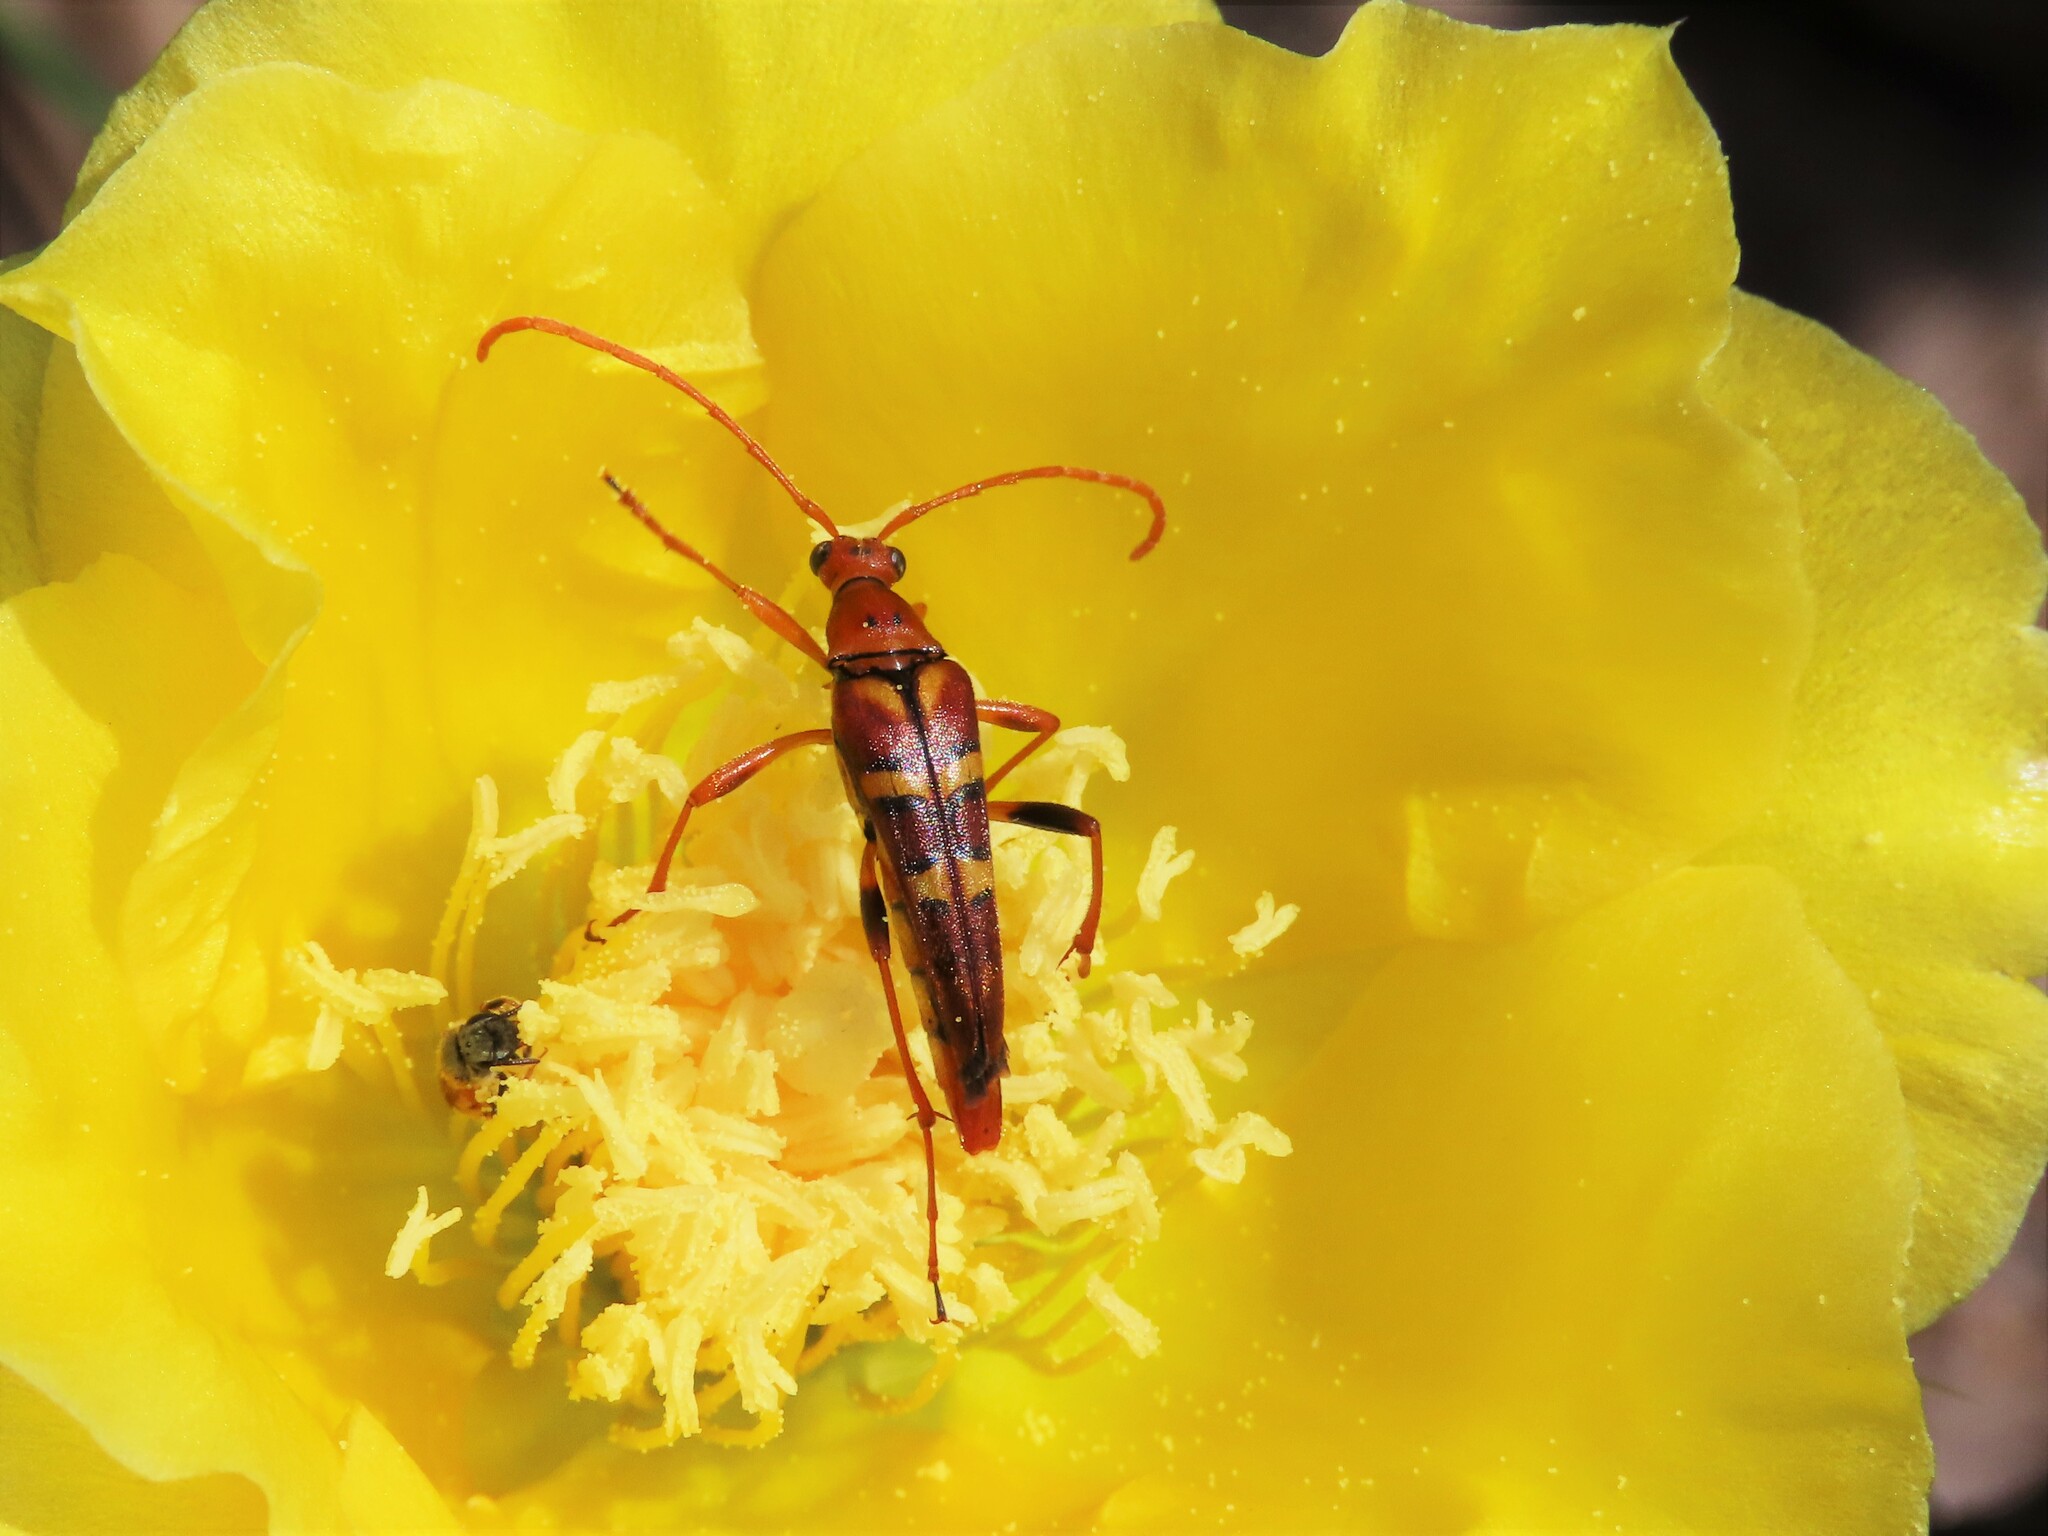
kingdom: Animalia
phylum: Arthropoda
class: Insecta
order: Coleoptera
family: Cerambycidae
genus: Strangalia
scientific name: Strangalia strigosa
